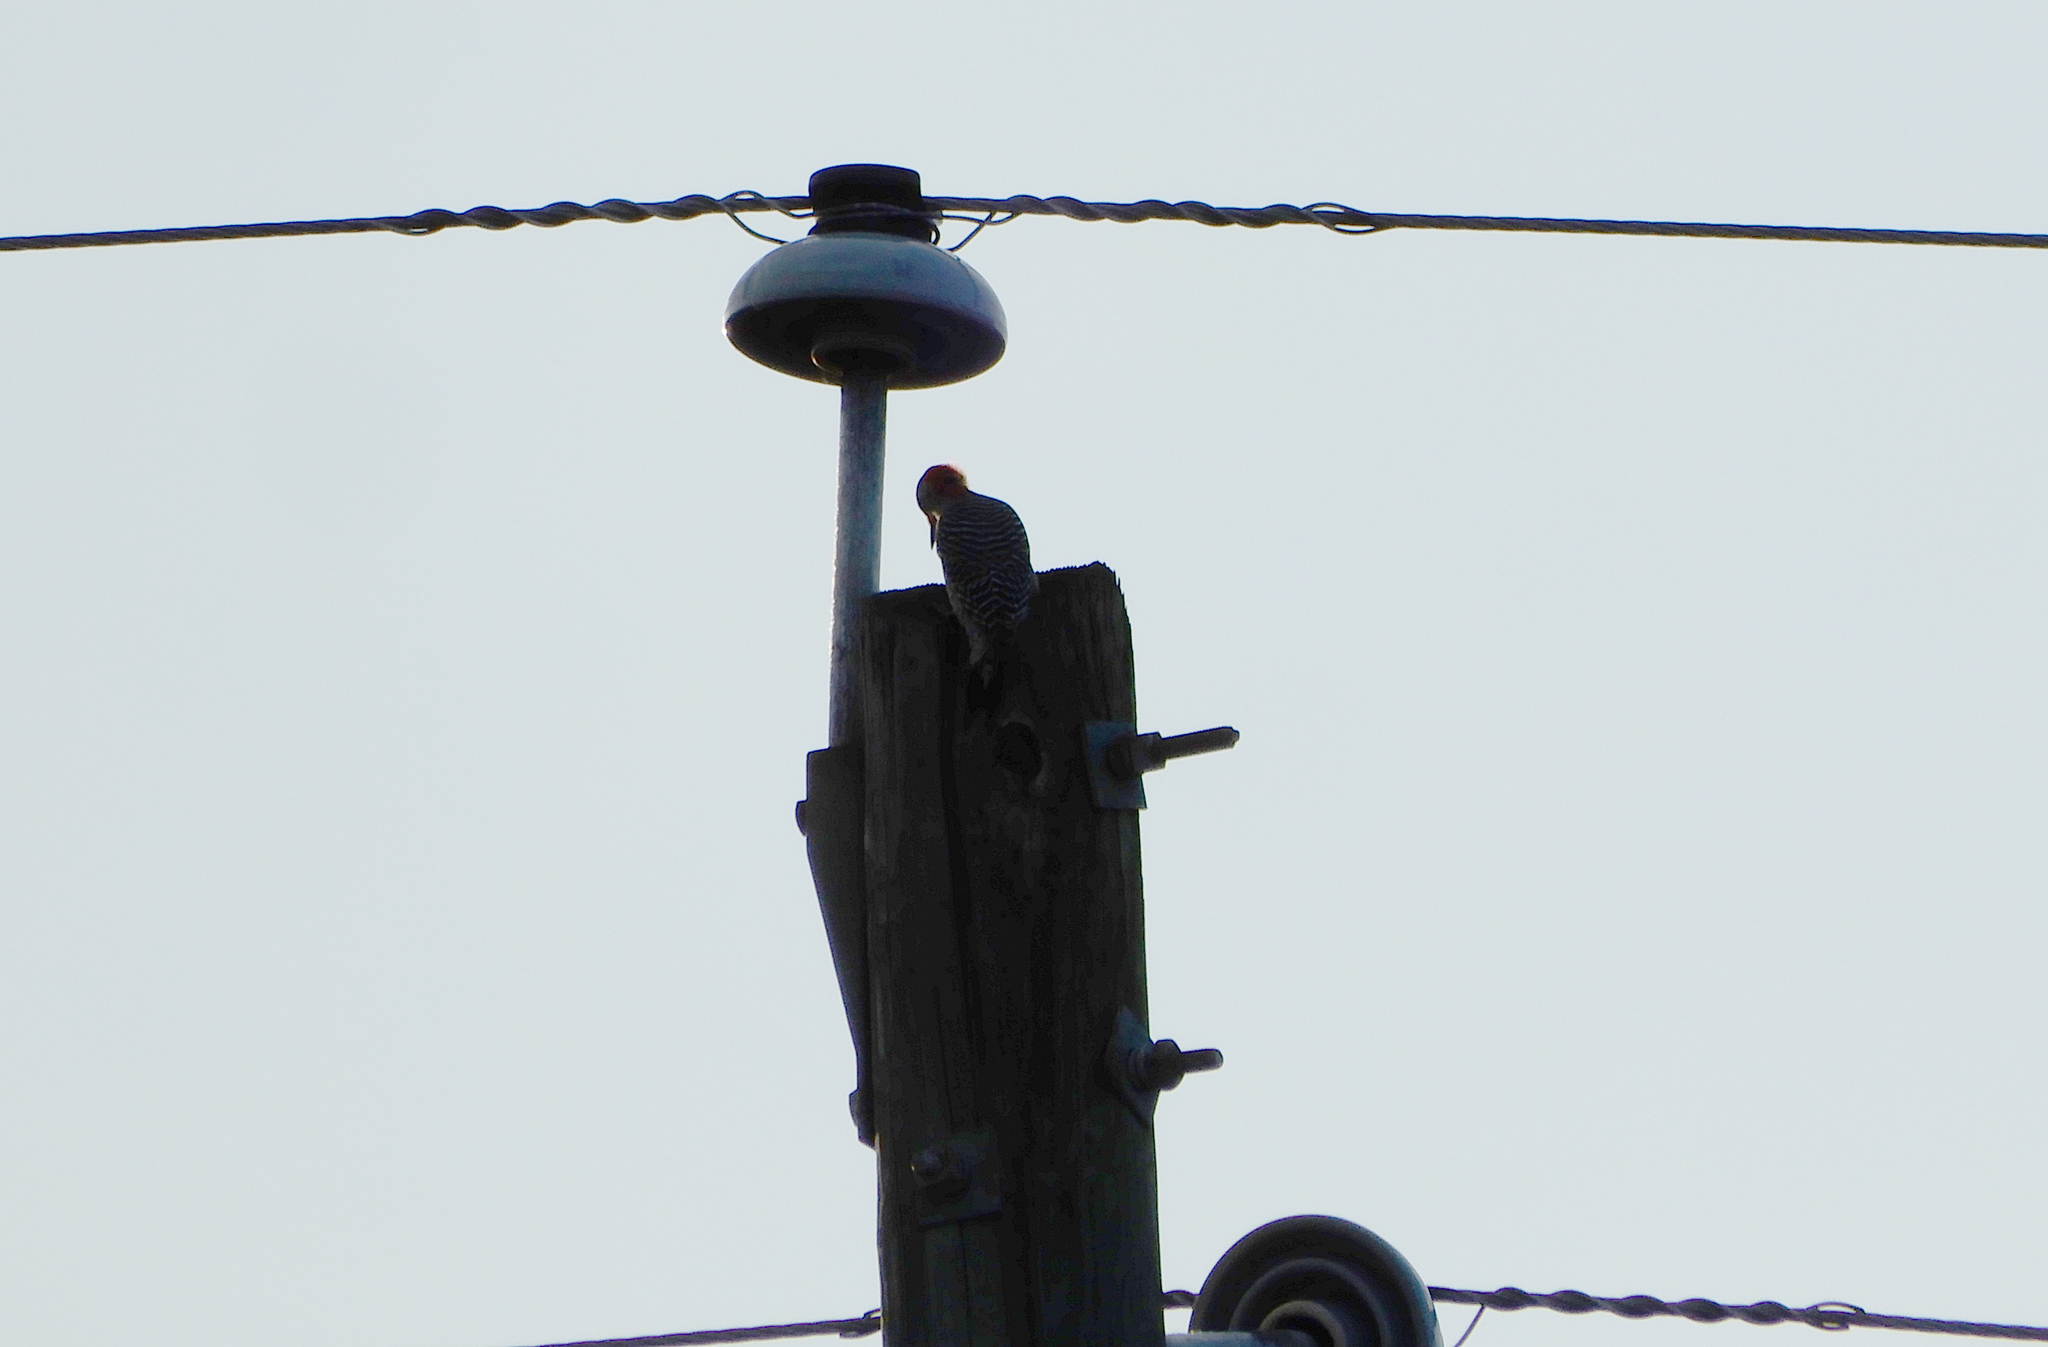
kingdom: Animalia
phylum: Chordata
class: Aves
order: Piciformes
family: Picidae
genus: Melanerpes
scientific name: Melanerpes carolinus
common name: Red-bellied woodpecker
